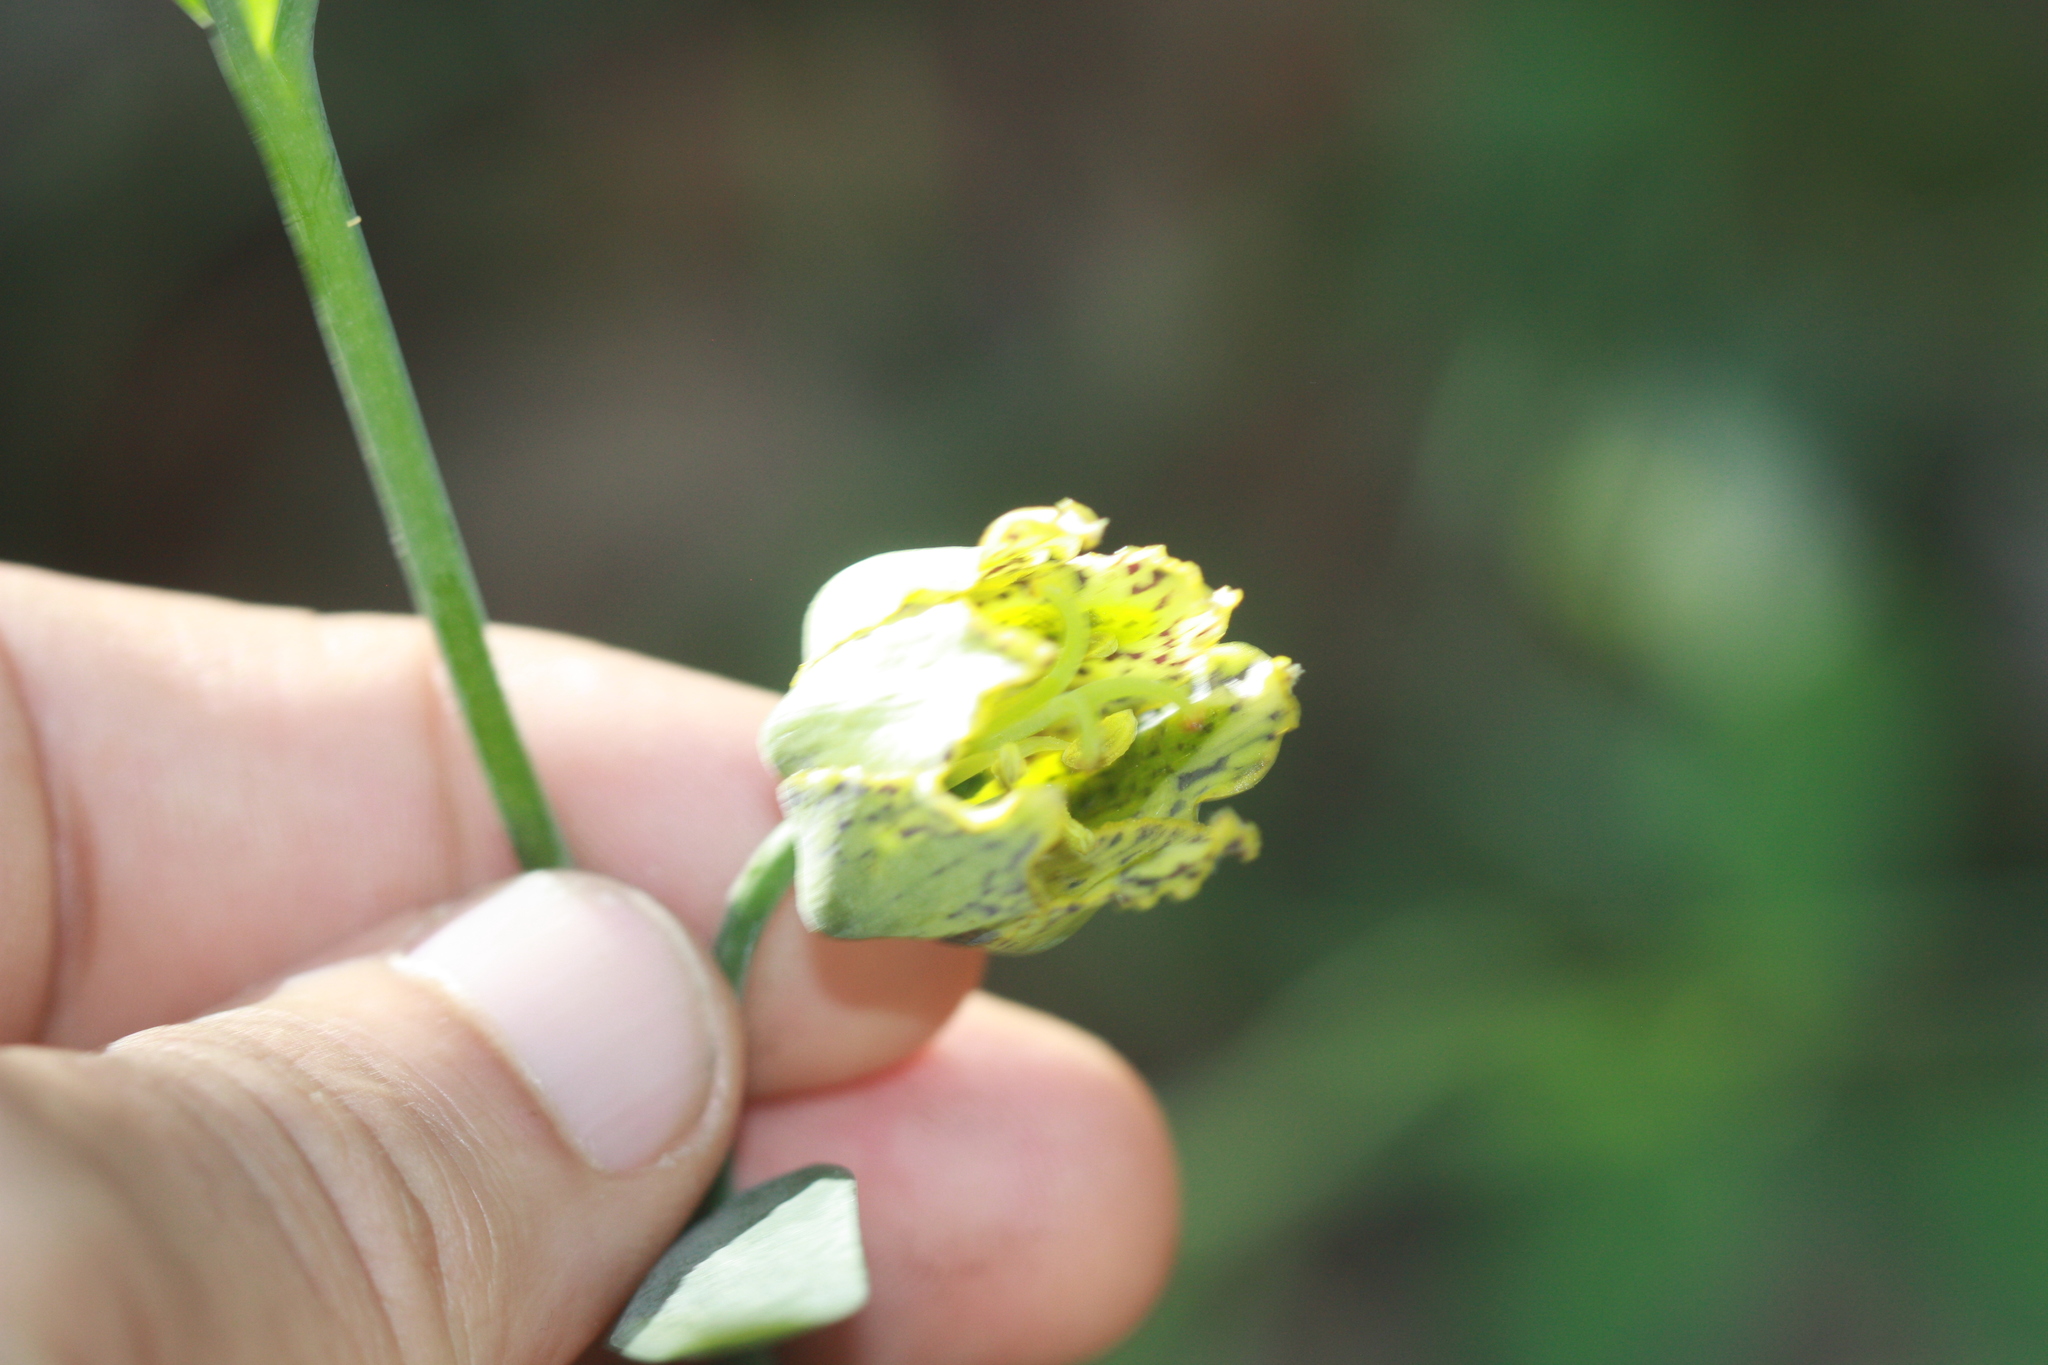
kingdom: Plantae
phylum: Tracheophyta
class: Liliopsida
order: Liliales
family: Liliaceae
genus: Fritillaria
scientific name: Fritillaria affinis
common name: Ojai fritillary
